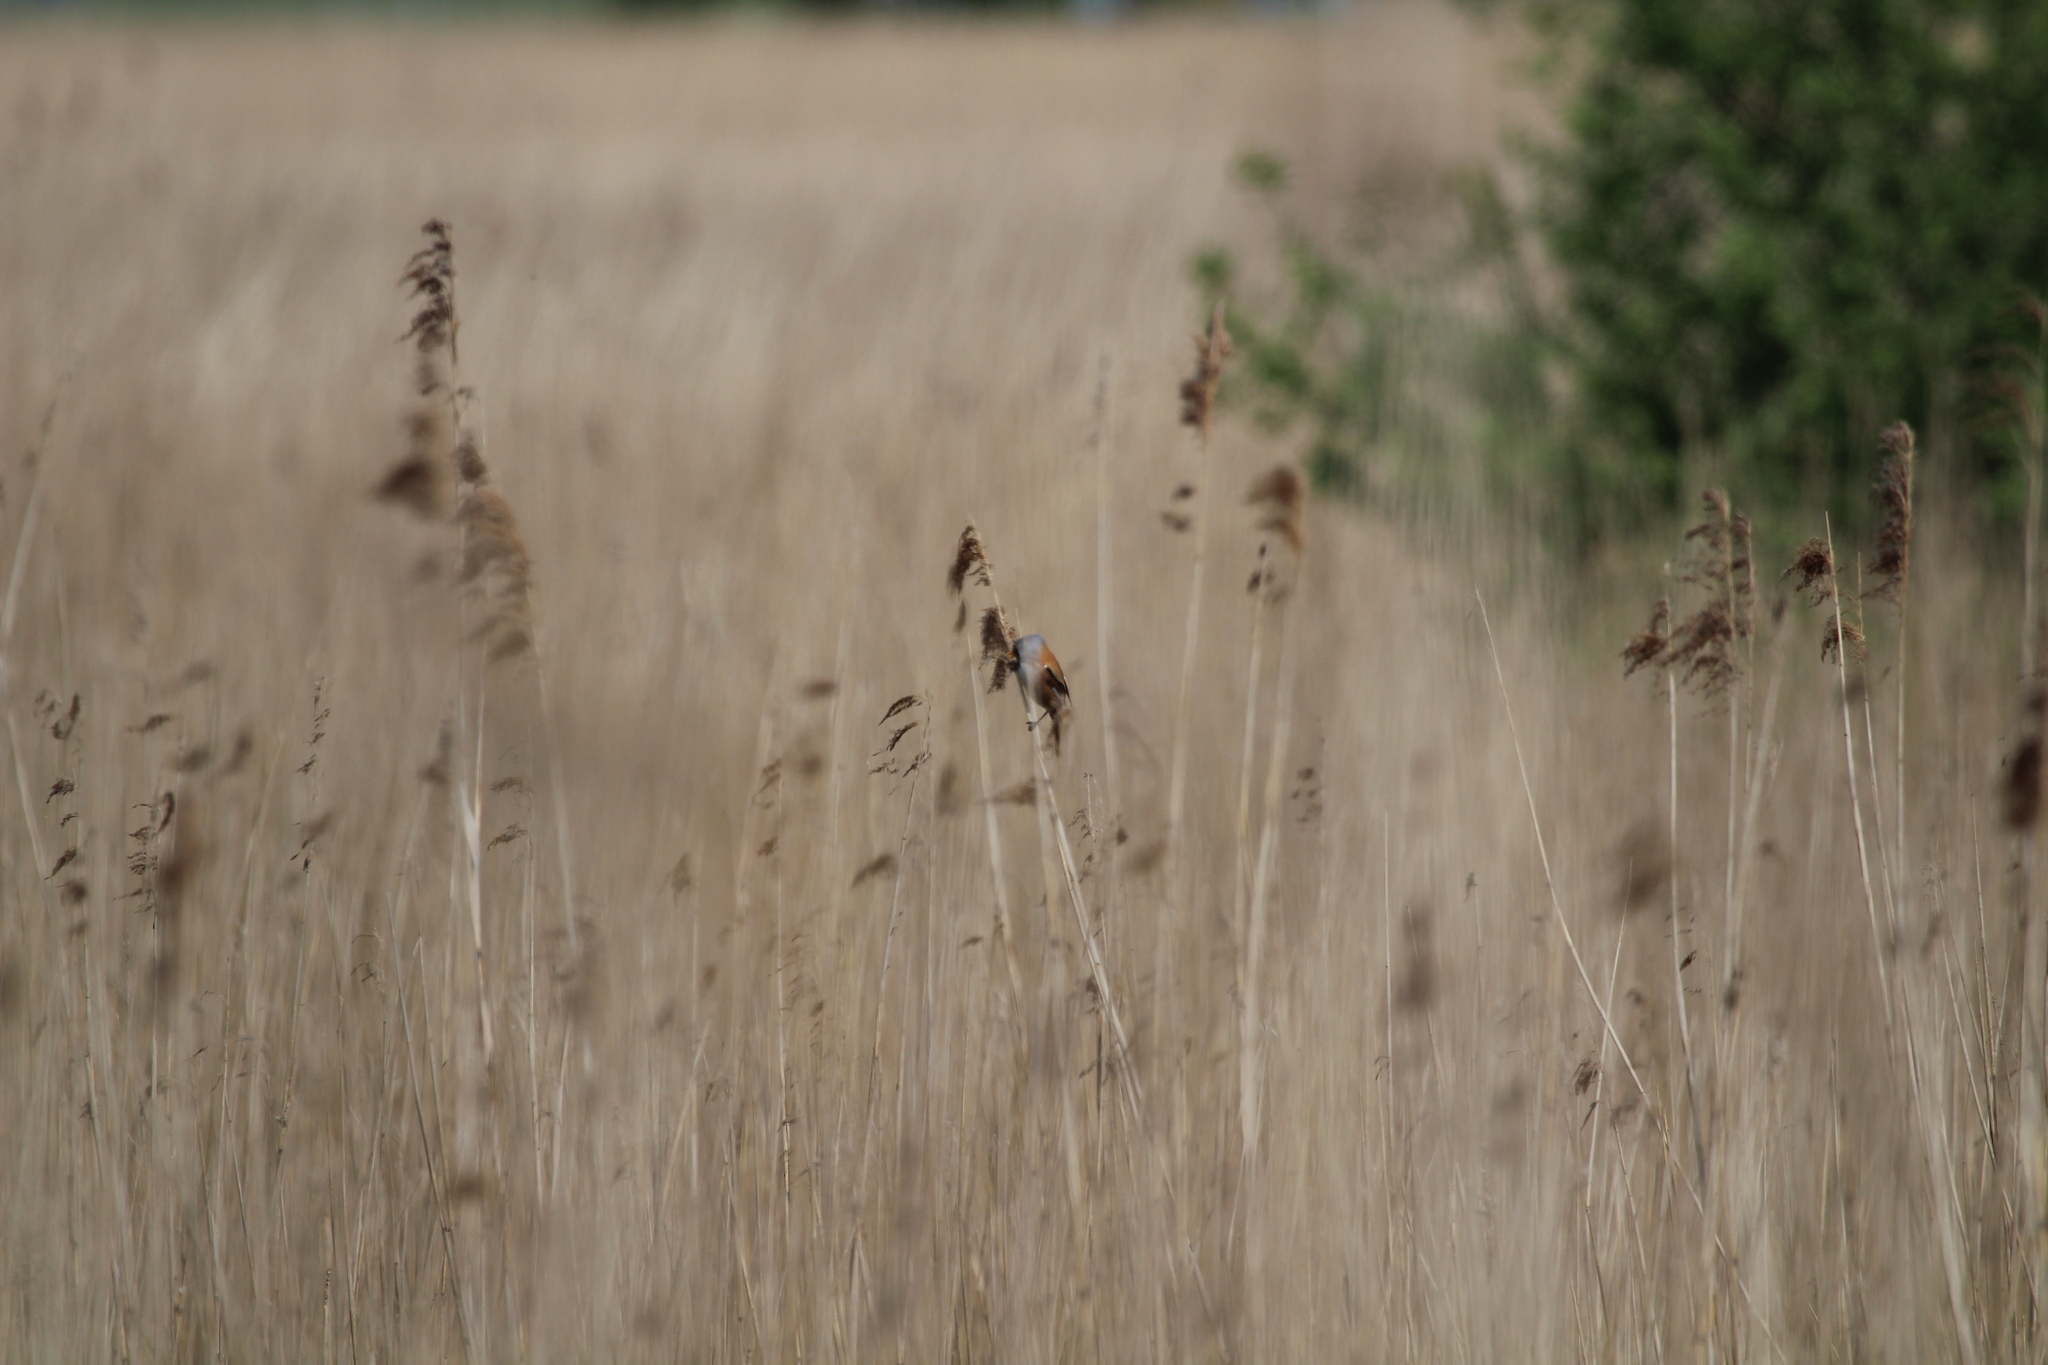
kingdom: Animalia
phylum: Chordata
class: Aves
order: Passeriformes
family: Panuridae
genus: Panurus
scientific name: Panurus biarmicus
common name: Bearded reedling
